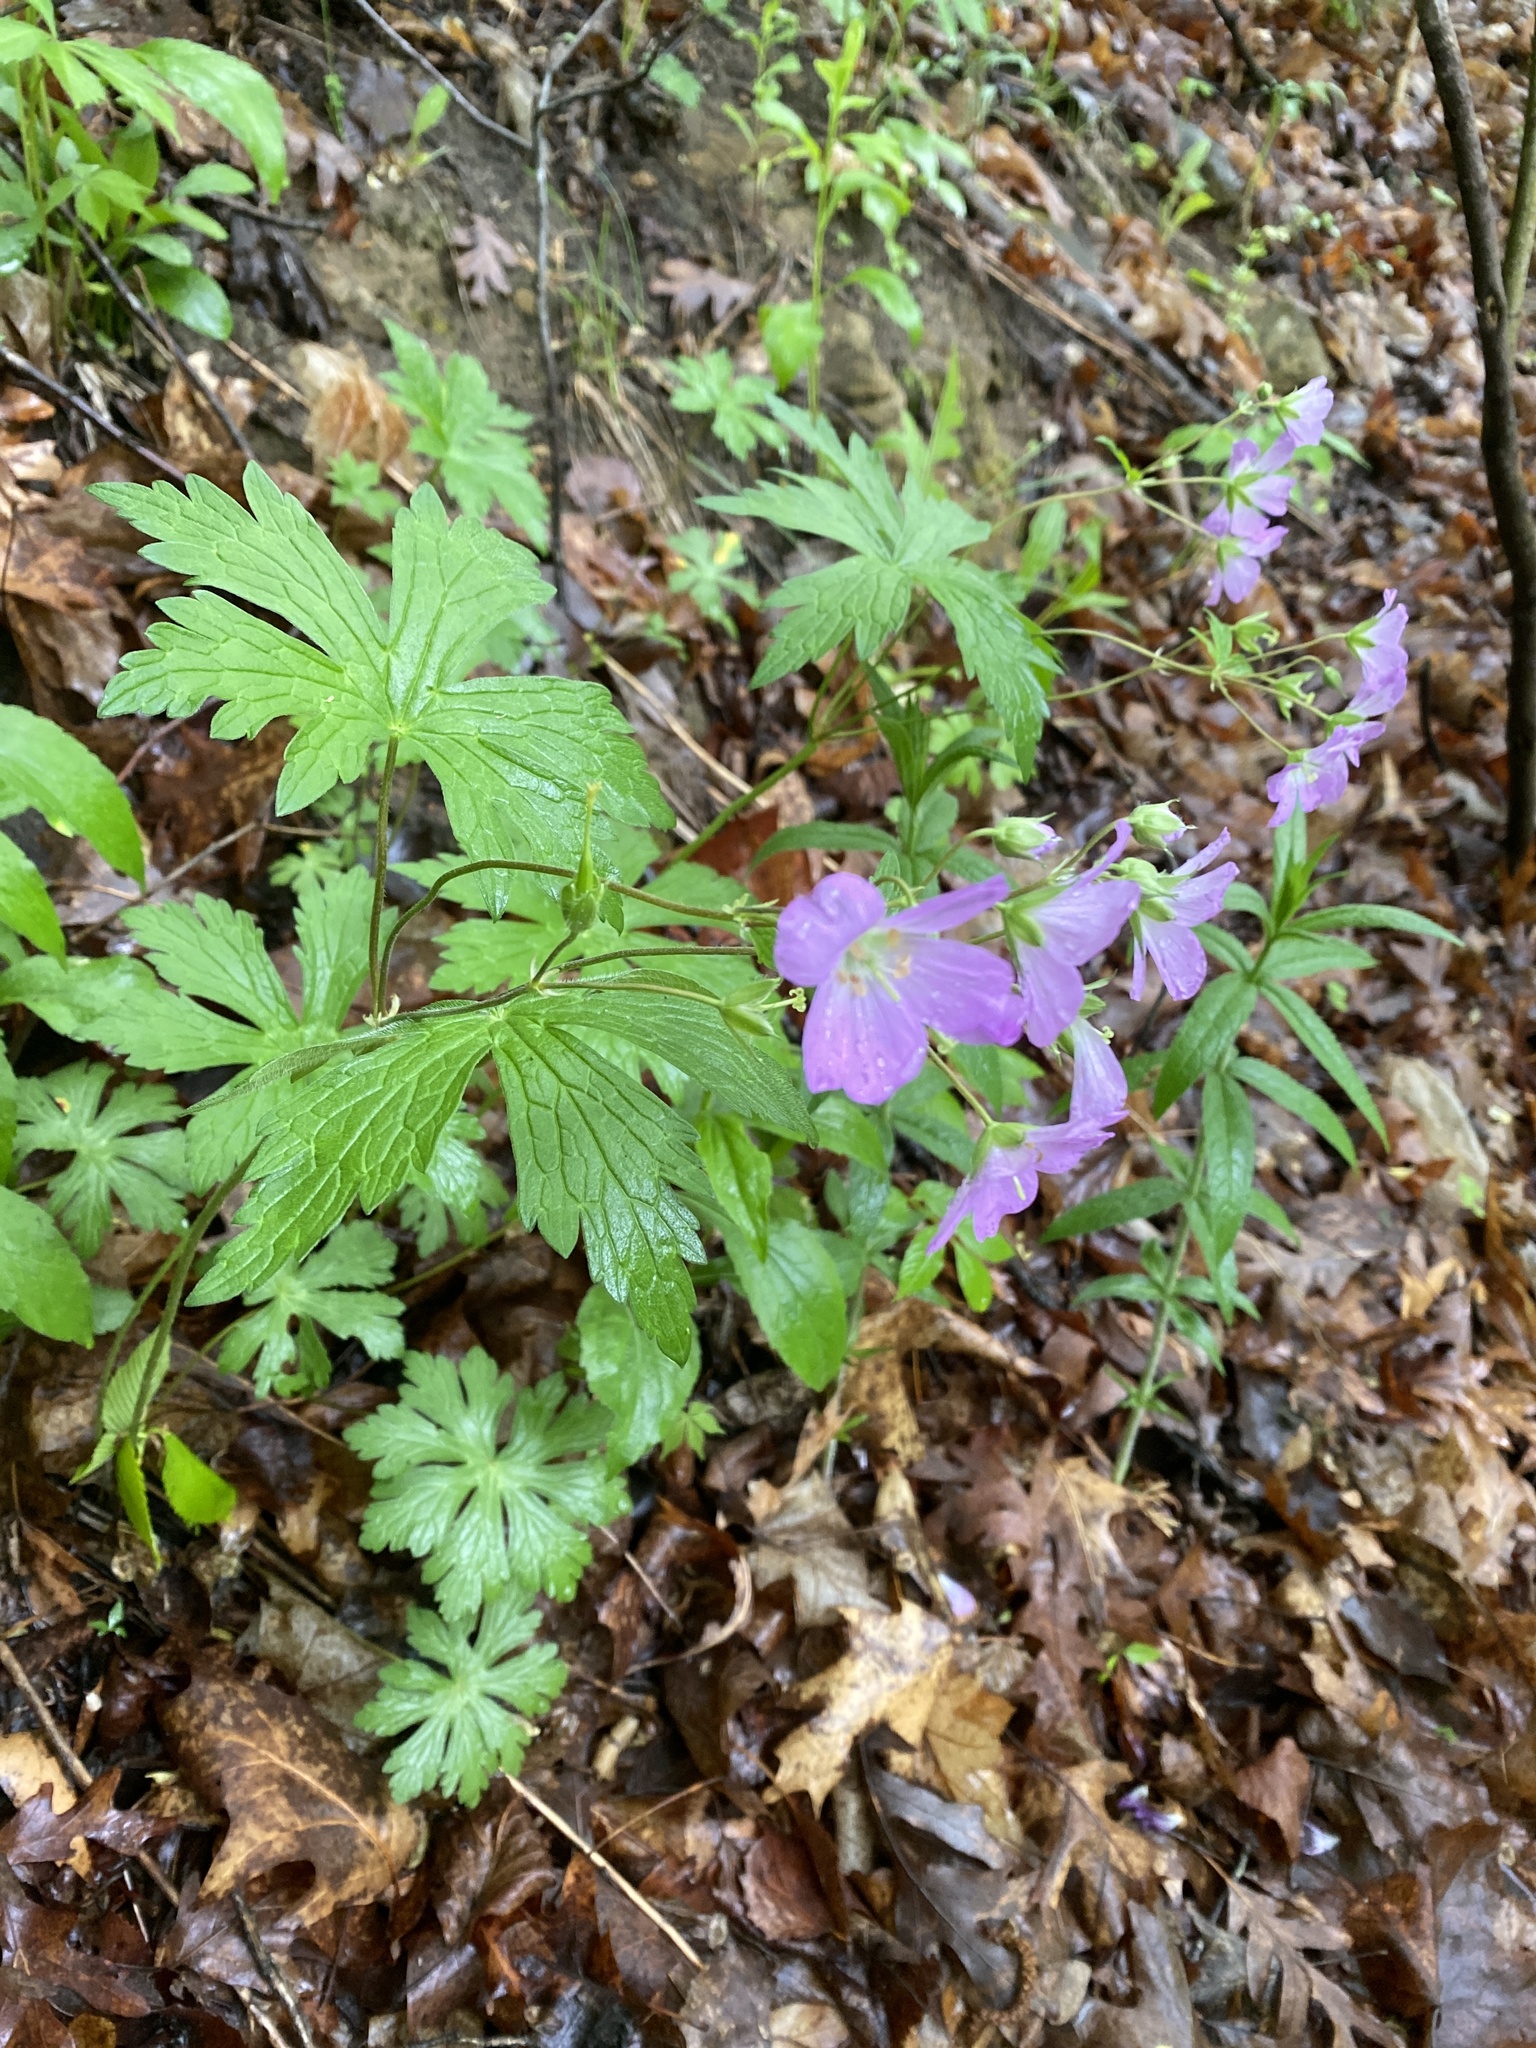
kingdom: Plantae
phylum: Tracheophyta
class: Magnoliopsida
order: Geraniales
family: Geraniaceae
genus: Geranium
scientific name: Geranium maculatum
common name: Spotted geranium
